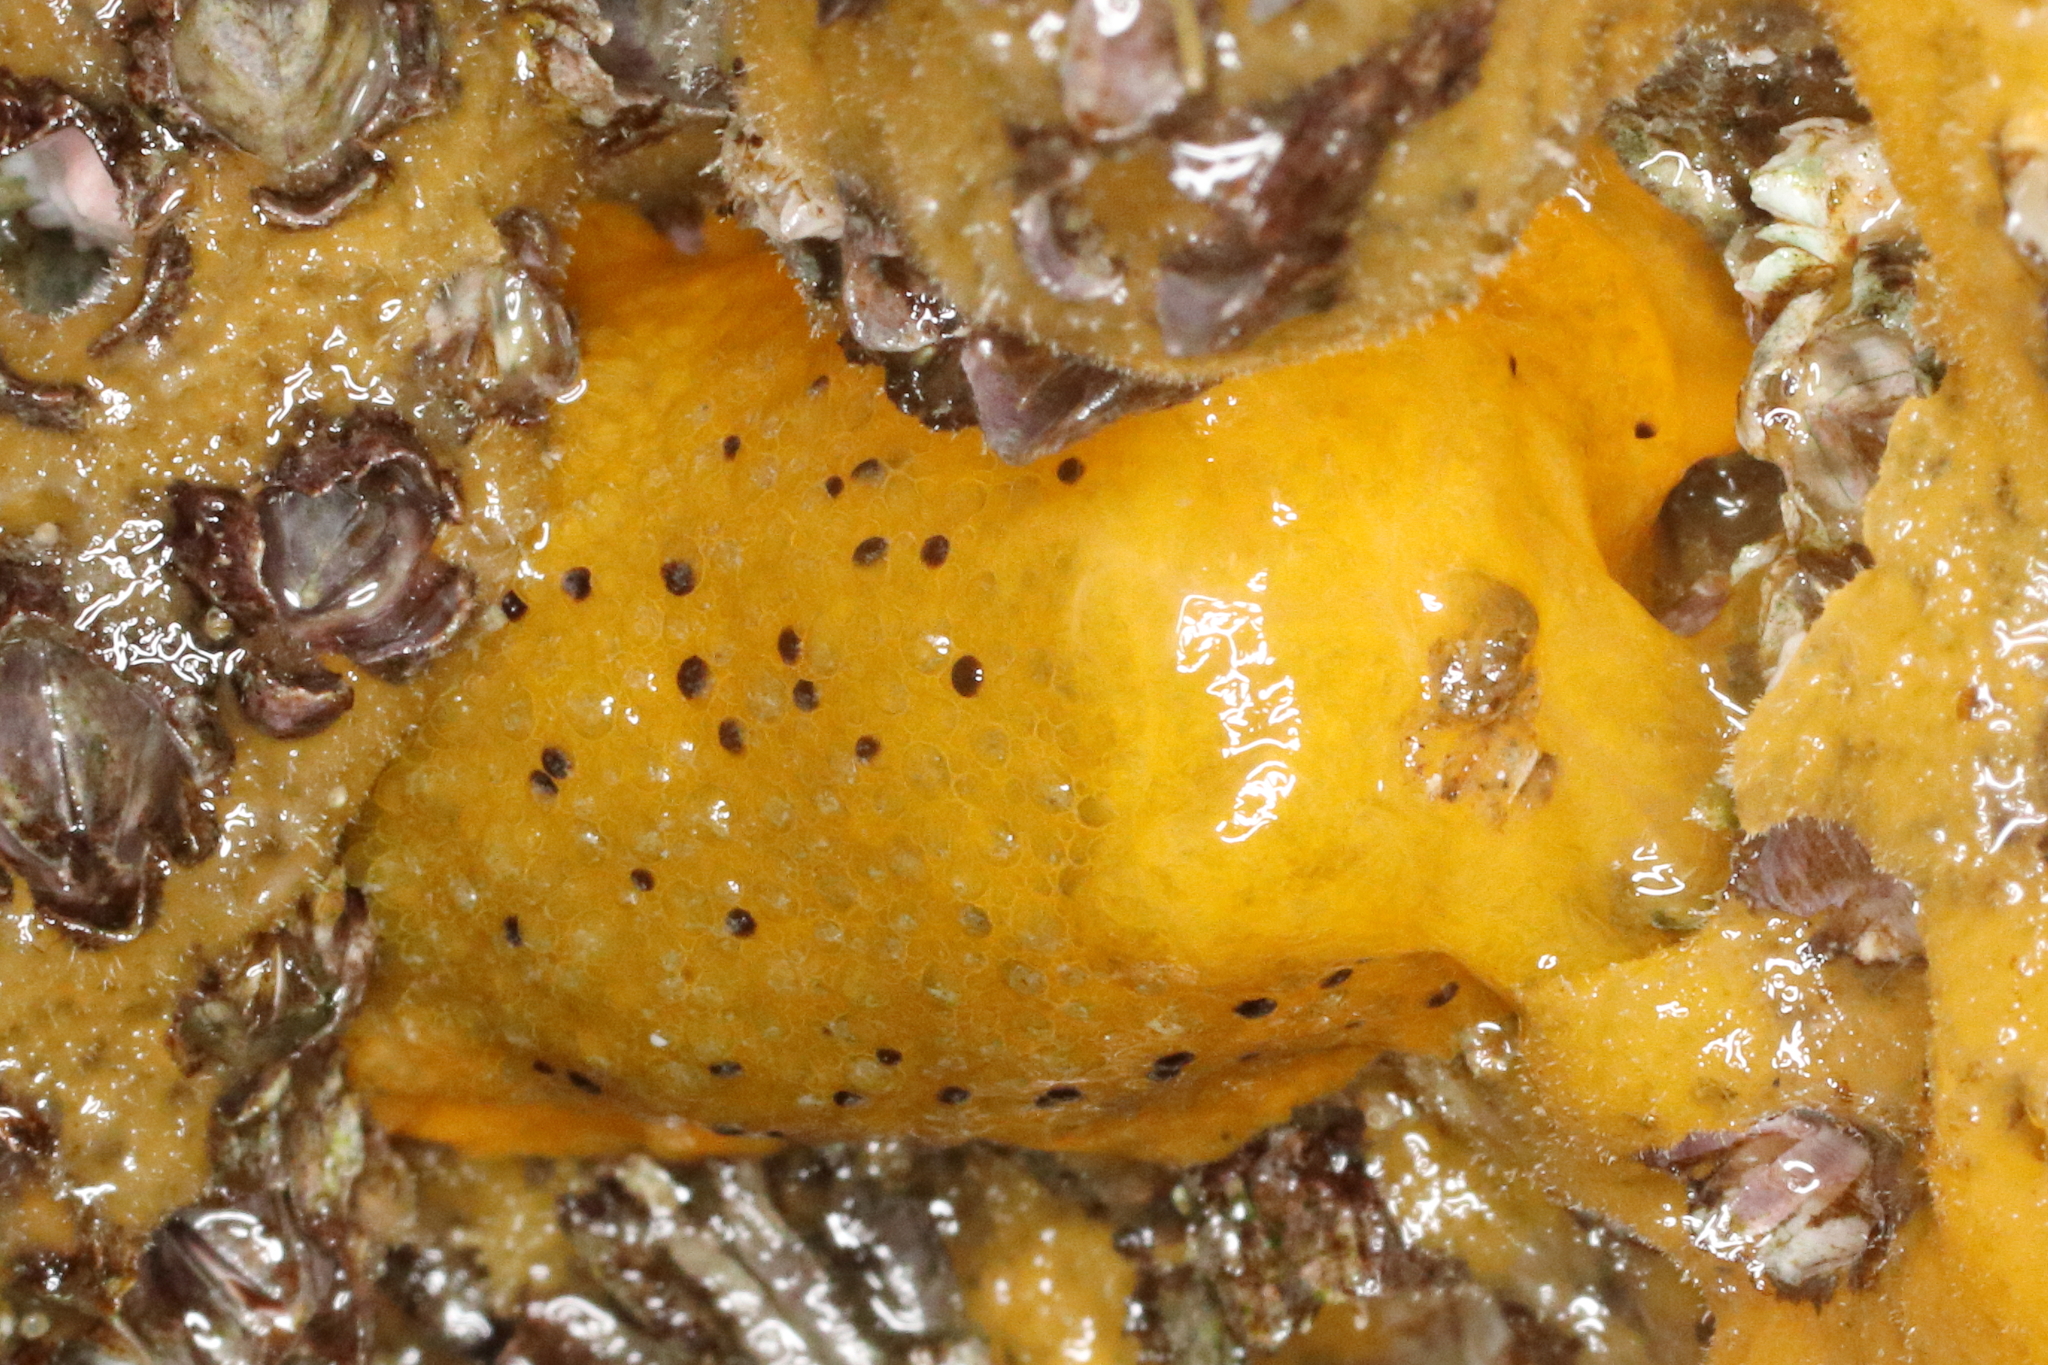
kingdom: Animalia
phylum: Mollusca
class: Gastropoda
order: Nudibranchia
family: Dorididae
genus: Doris
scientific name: Doris montereyensis
